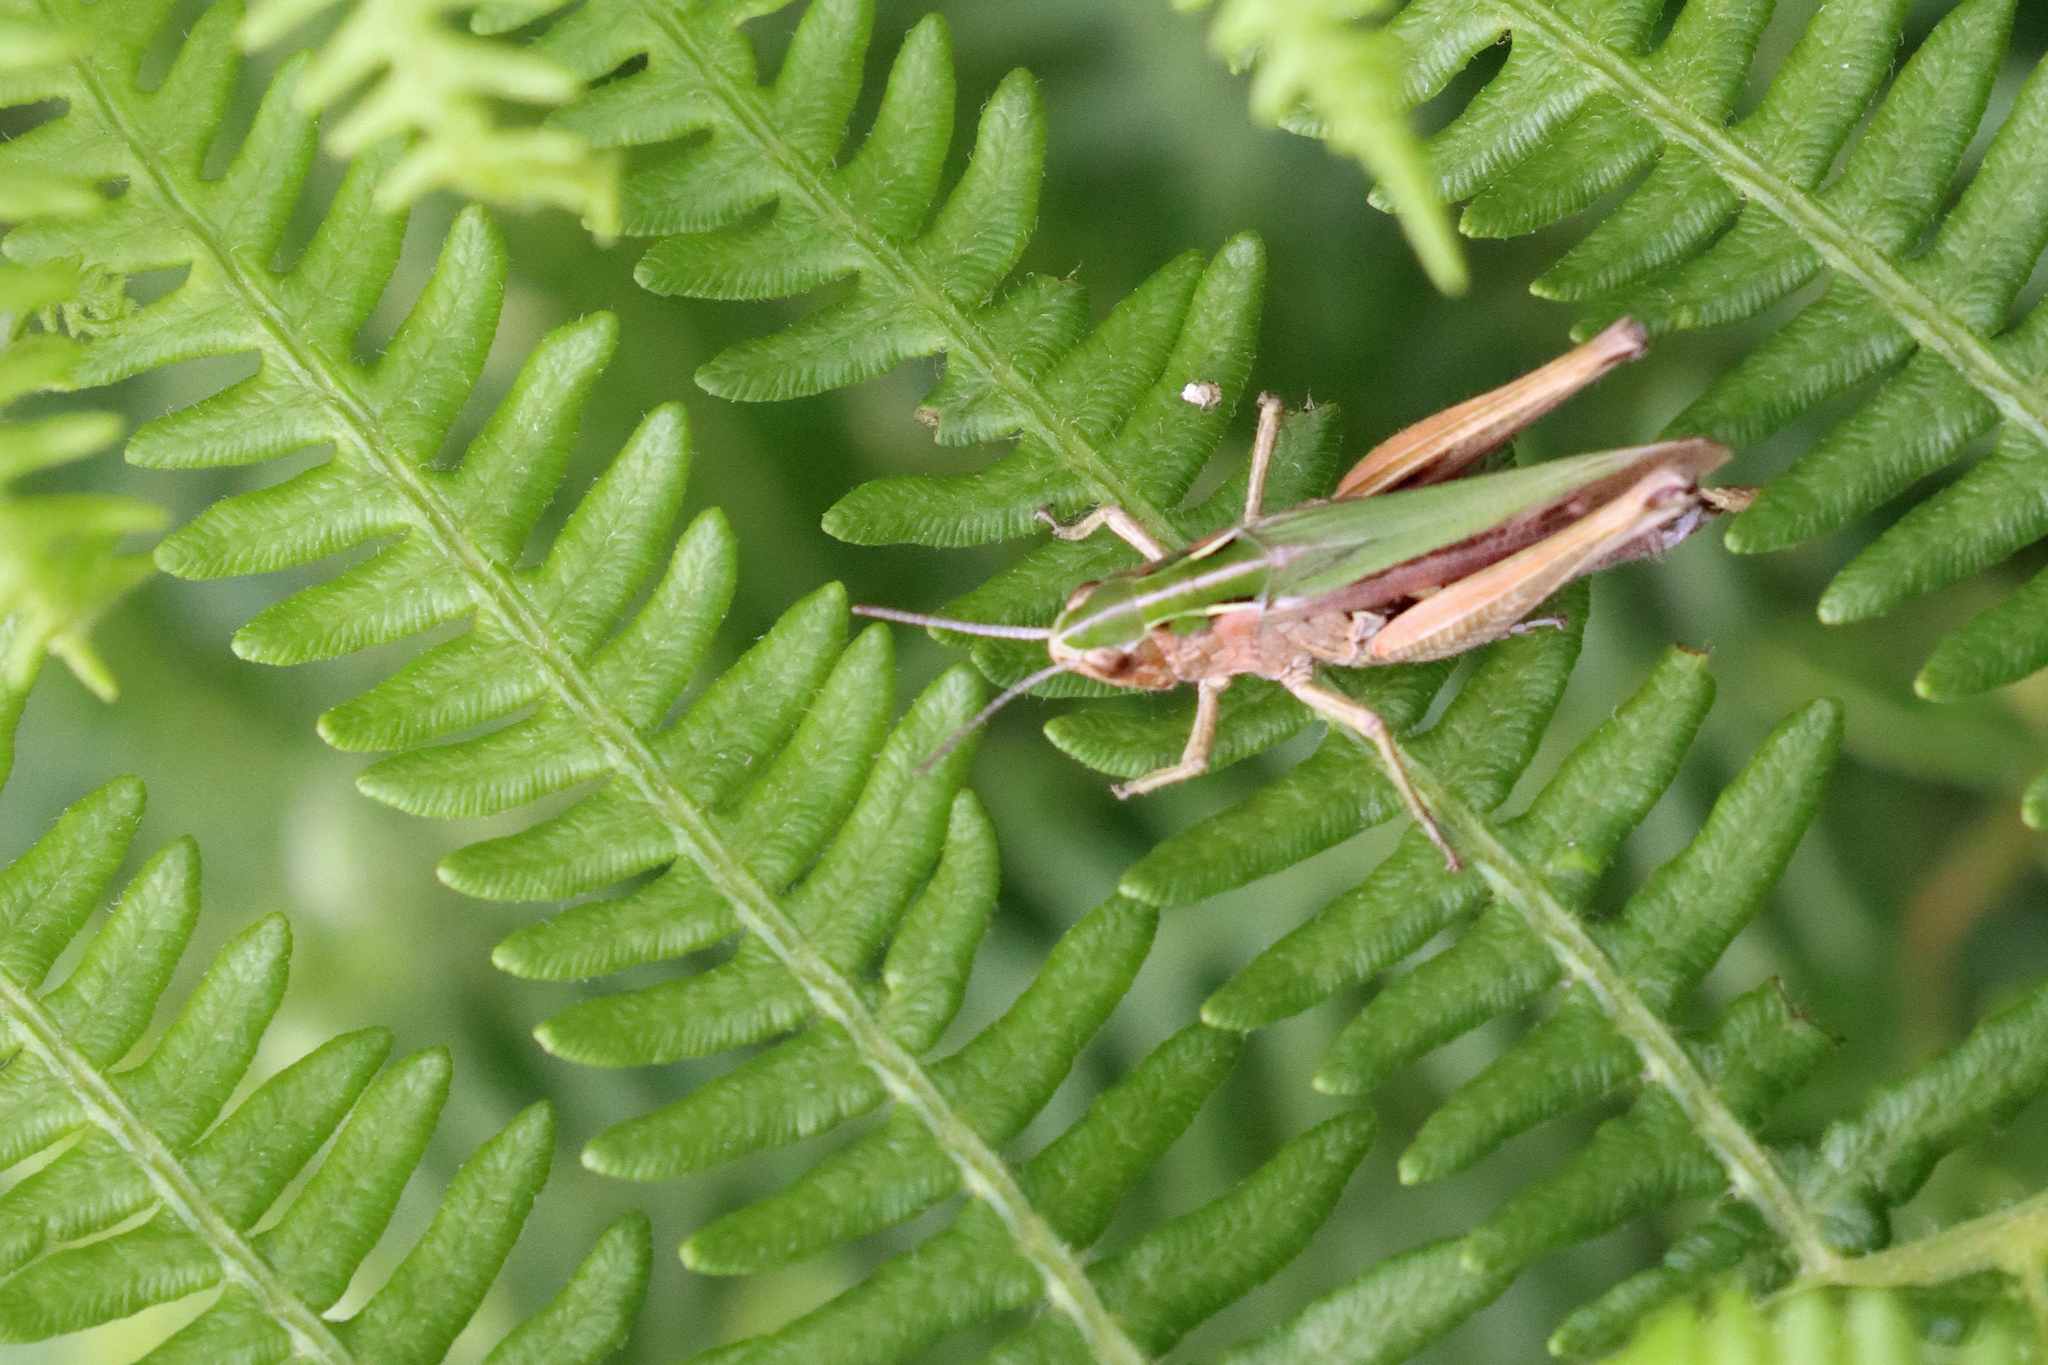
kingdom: Animalia
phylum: Arthropoda
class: Insecta
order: Orthoptera
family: Acrididae
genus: Omocestus
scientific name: Omocestus viridulus
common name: Common green grasshopper
